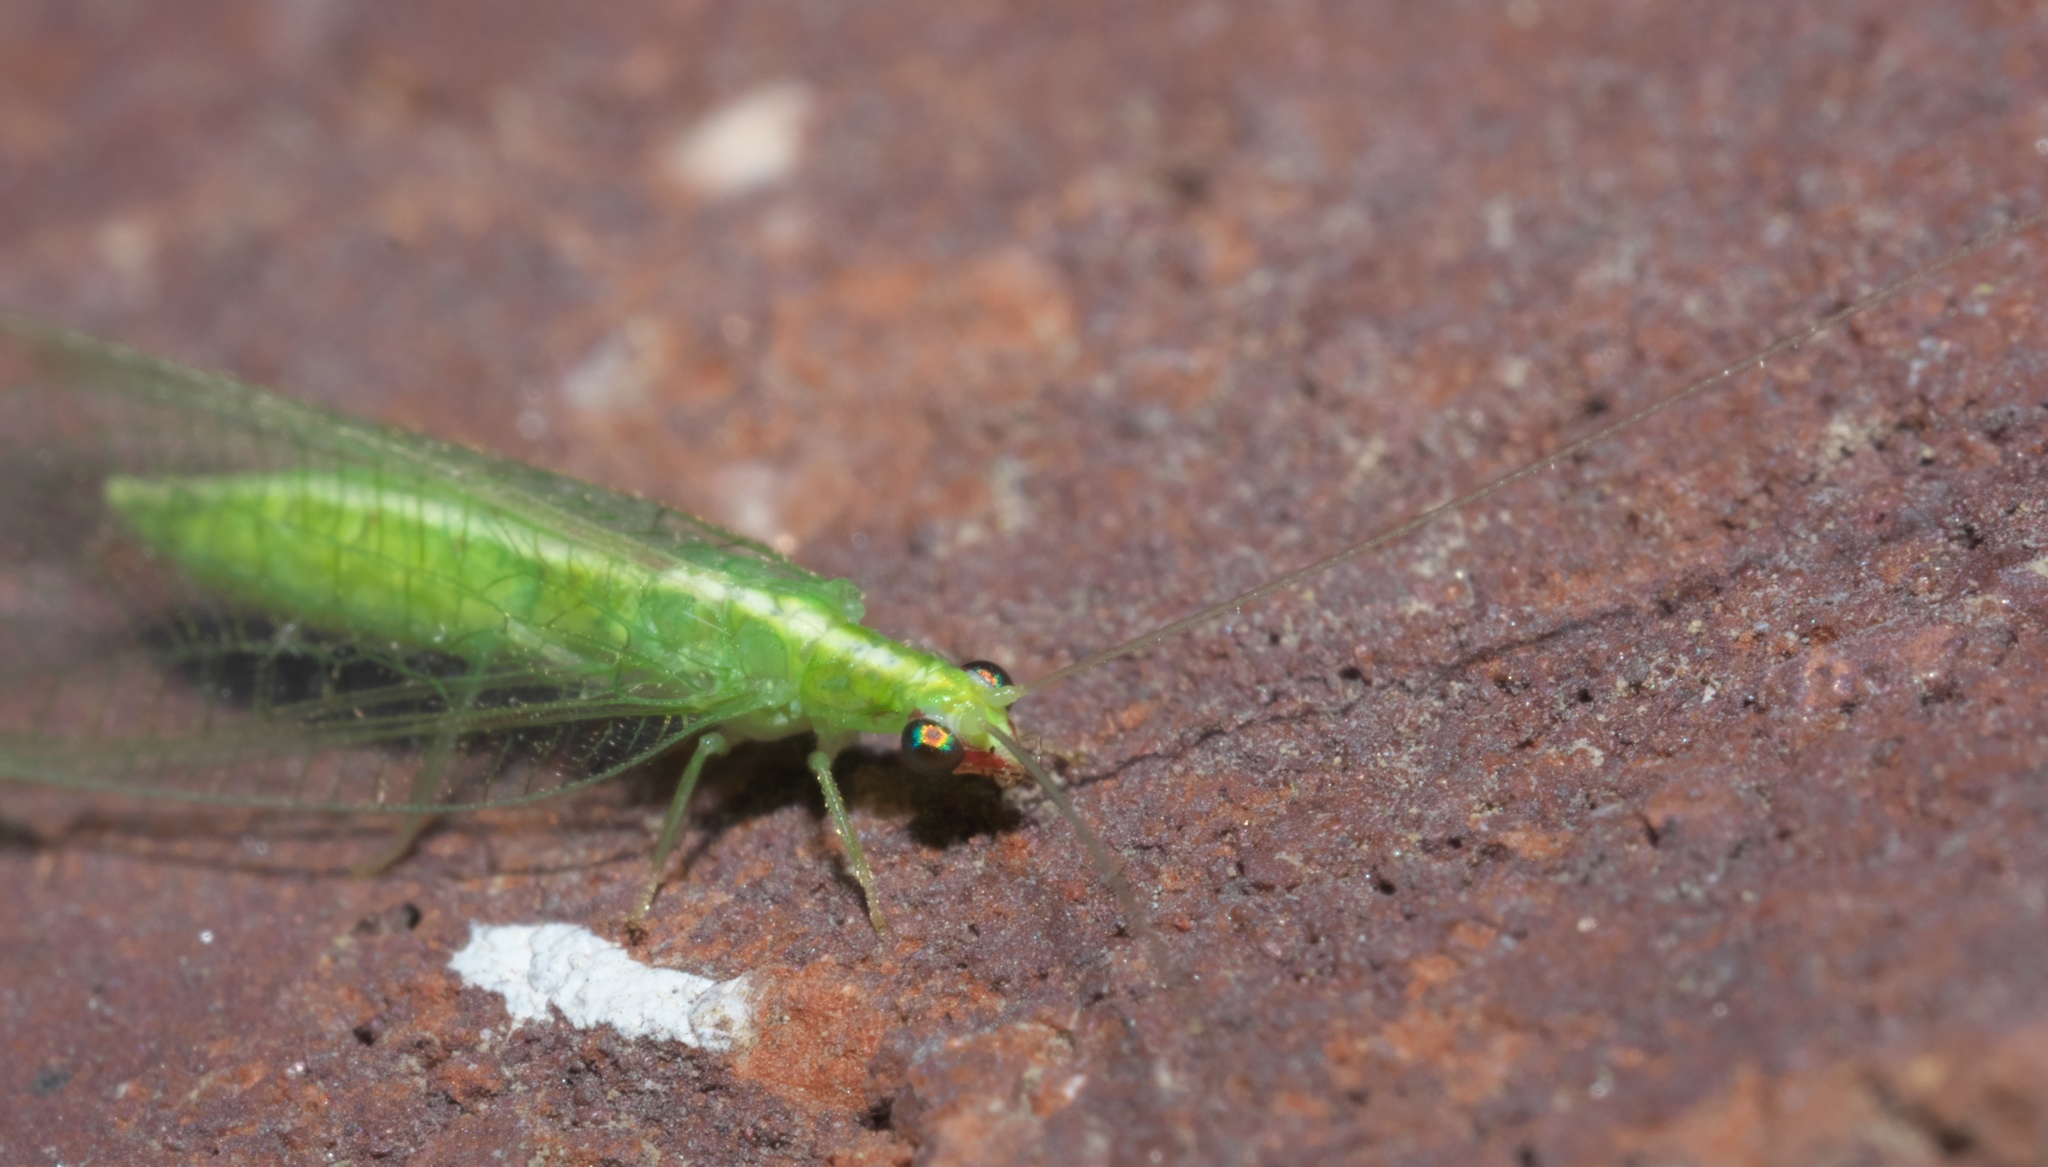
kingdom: Animalia
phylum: Arthropoda
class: Insecta
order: Neuroptera
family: Chrysopidae
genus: Chrysoperla
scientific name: Chrysoperla rufilabris
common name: Red-lipped green lacewing
